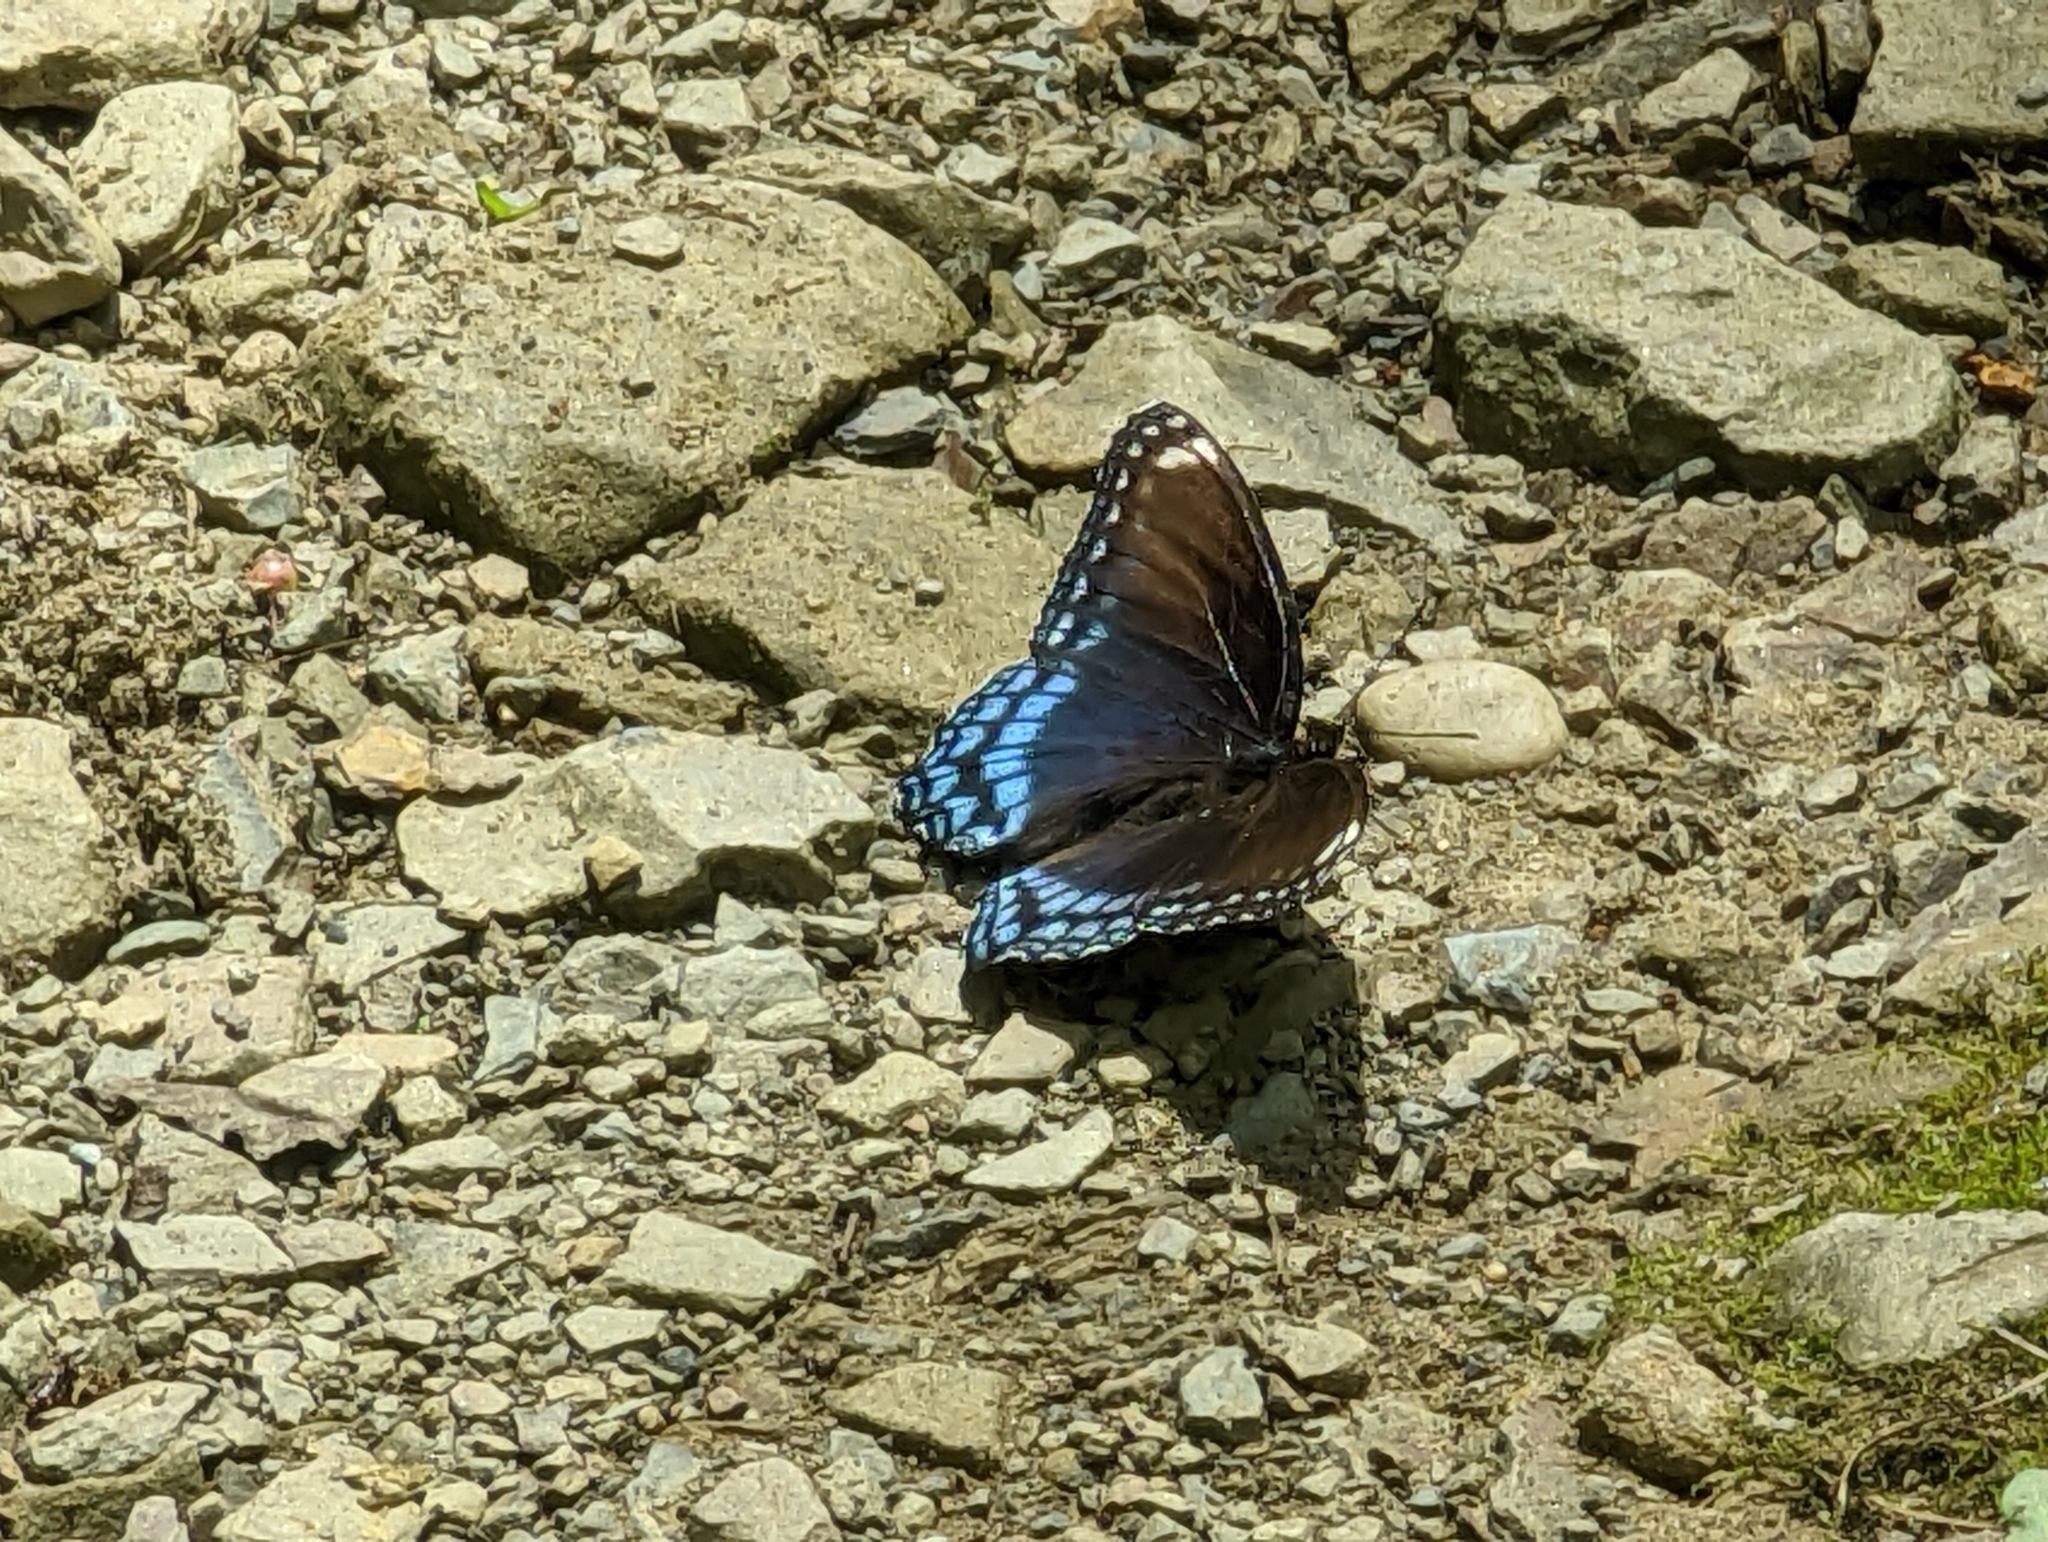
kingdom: Animalia
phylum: Arthropoda
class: Insecta
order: Lepidoptera
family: Nymphalidae
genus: Limenitis
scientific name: Limenitis arthemis
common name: Red-spotted admiral
